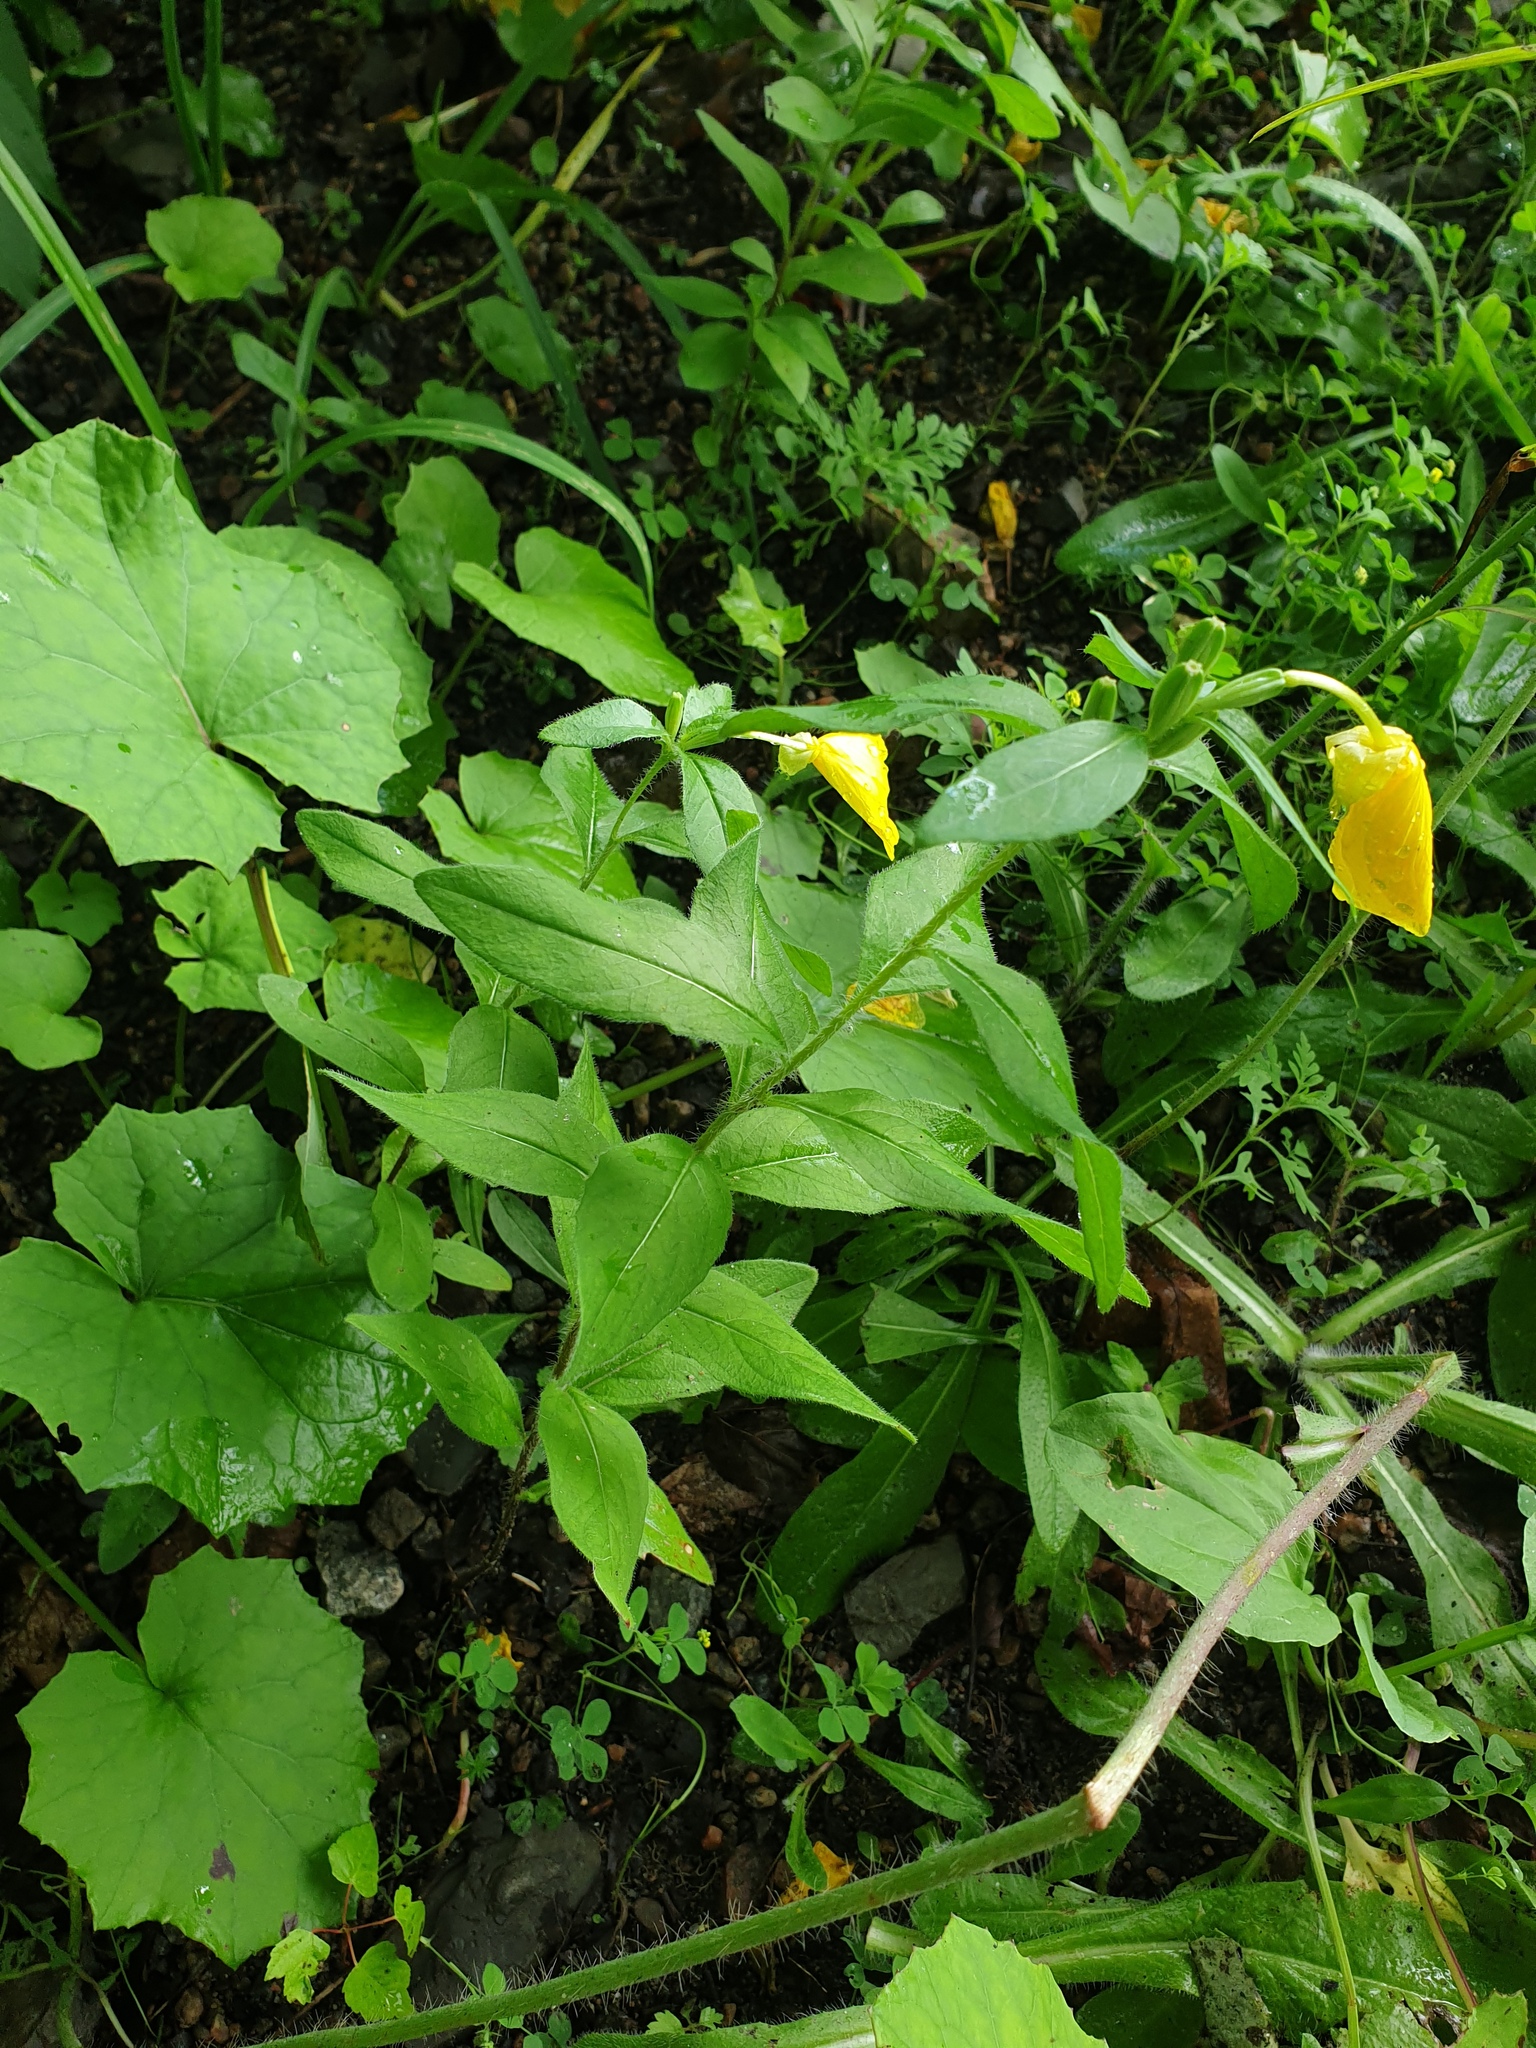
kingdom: Plantae
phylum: Tracheophyta
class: Magnoliopsida
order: Myrtales
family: Onagraceae
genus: Oenothera
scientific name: Oenothera pilosella
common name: Finely-pilose evening-primrose
